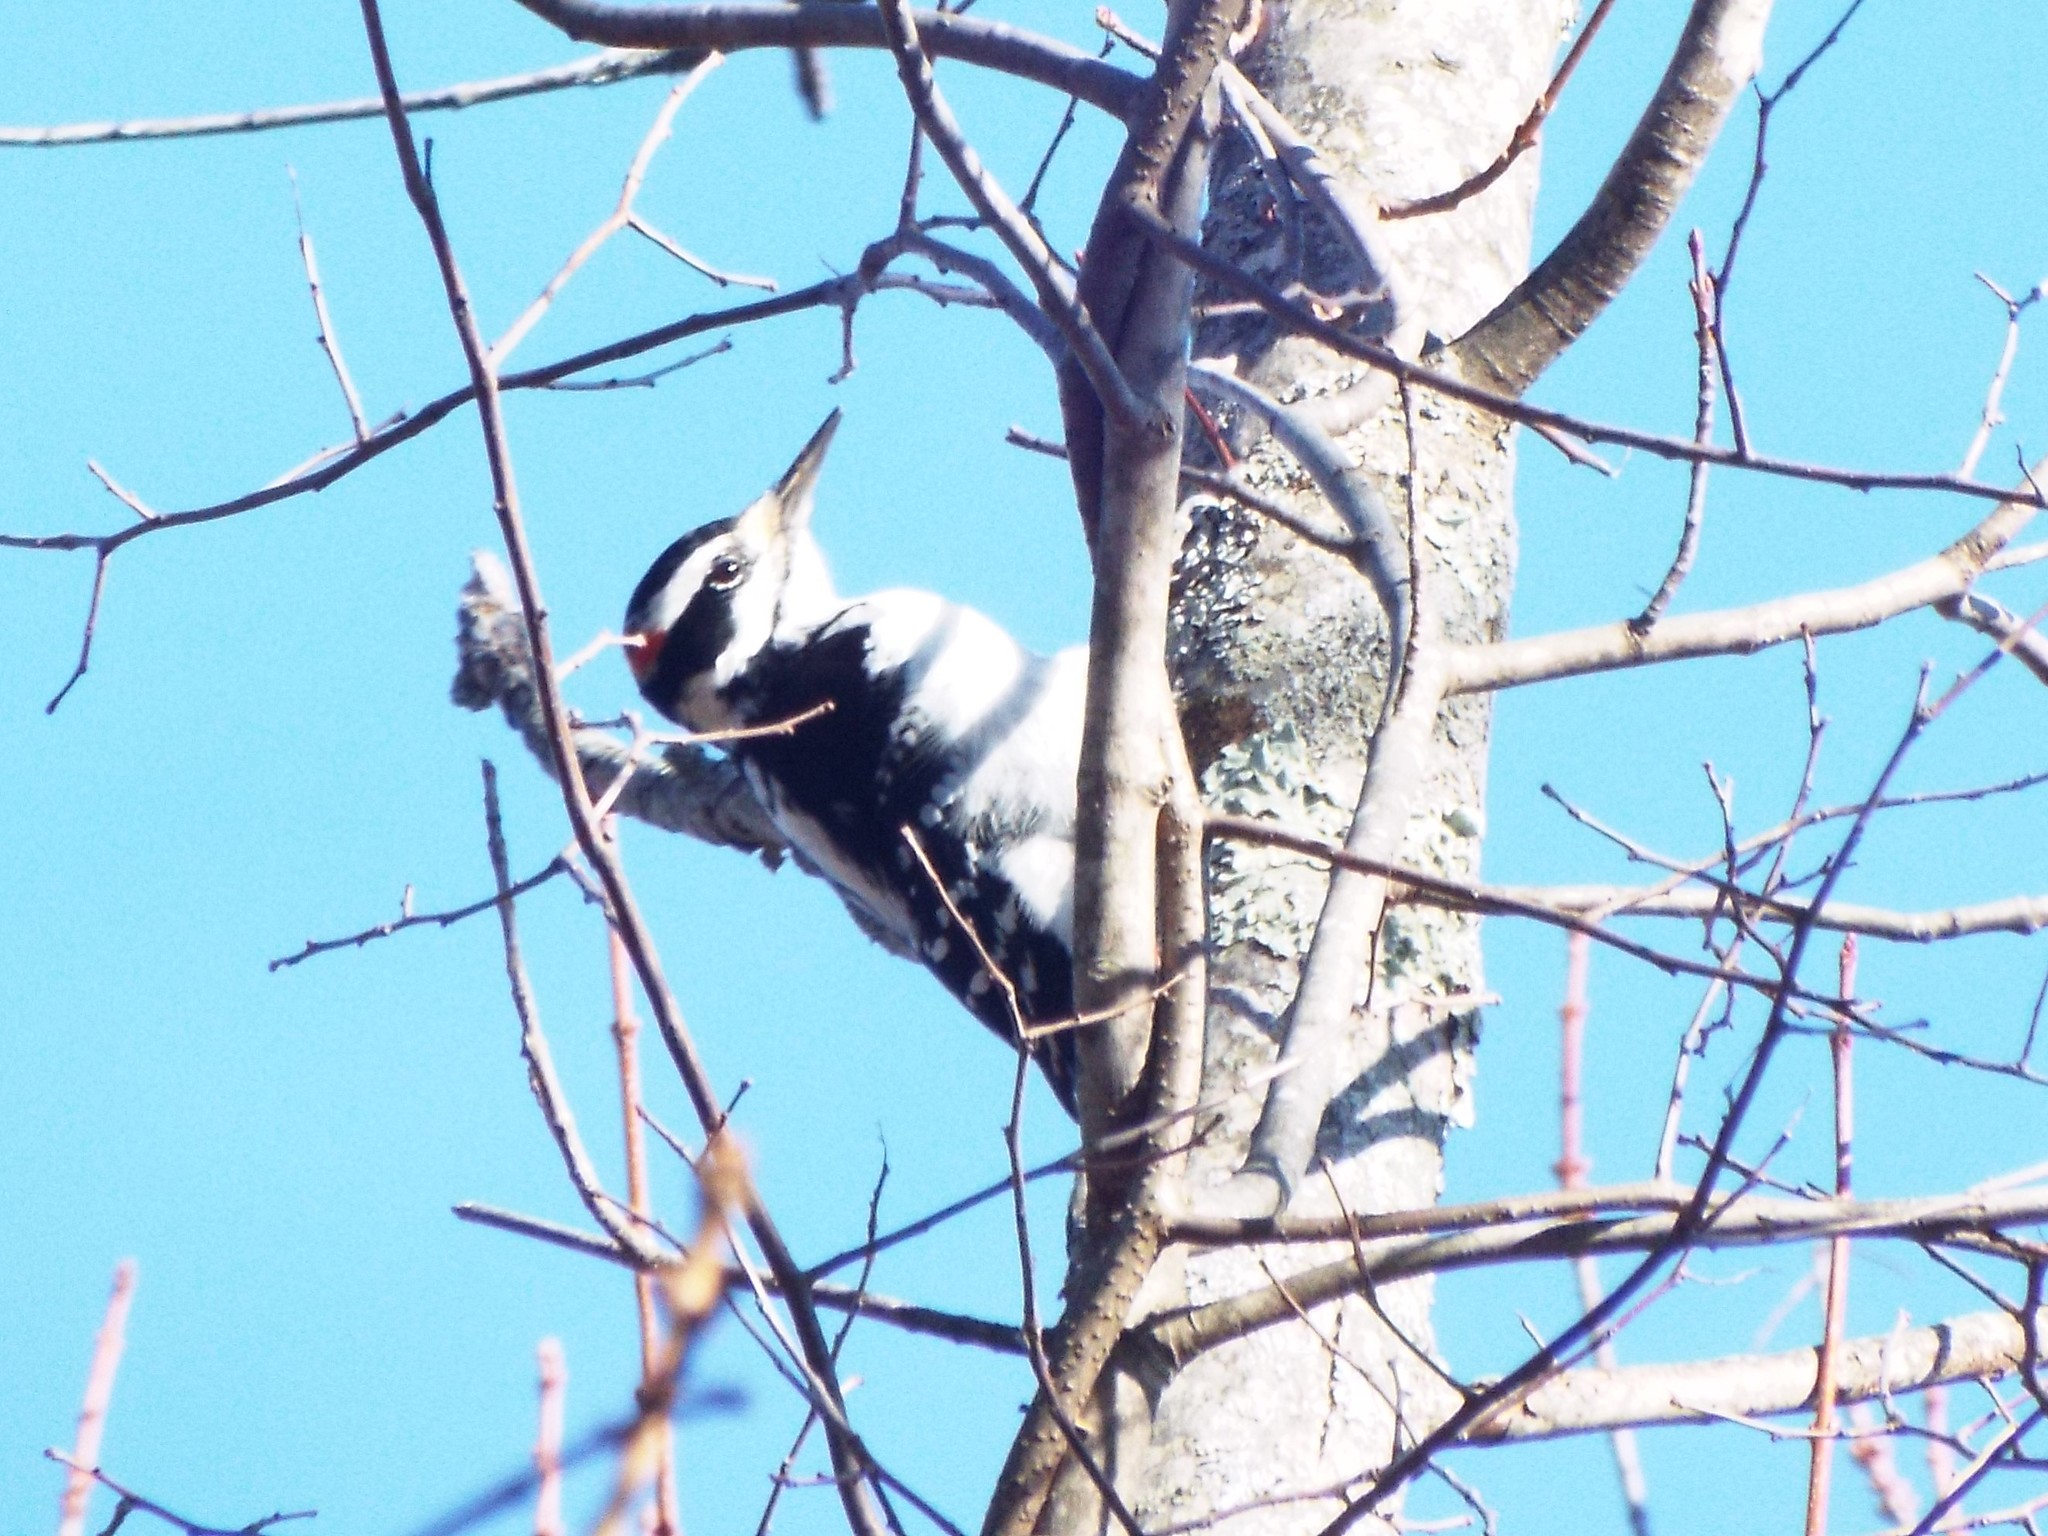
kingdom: Animalia
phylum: Chordata
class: Aves
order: Piciformes
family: Picidae
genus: Leuconotopicus
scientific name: Leuconotopicus villosus
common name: Hairy woodpecker
